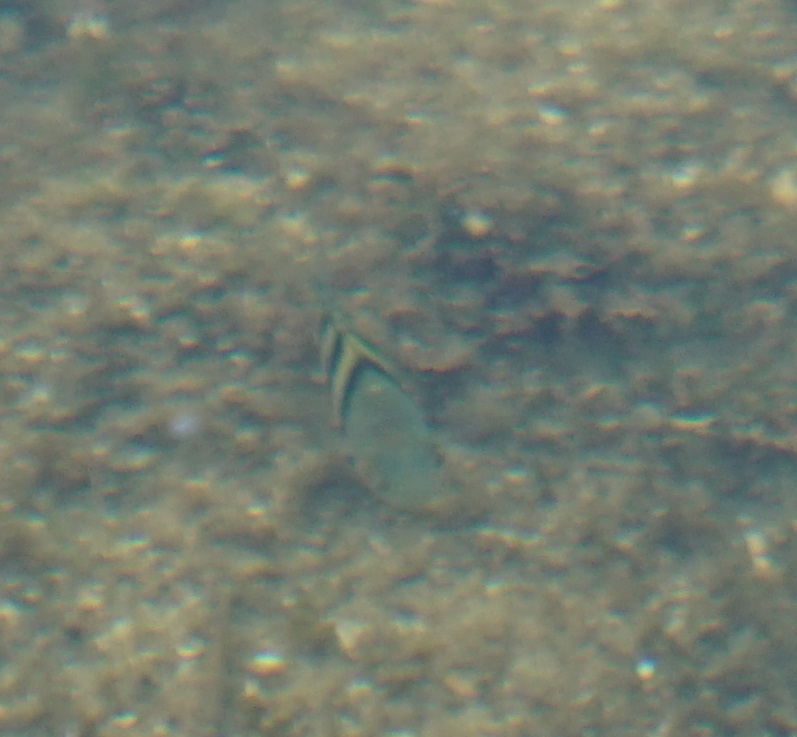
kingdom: Animalia
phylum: Chordata
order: Perciformes
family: Pomacentridae
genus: Abudefduf
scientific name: Abudefduf vaigiensis
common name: Indo-pacific sergeant
